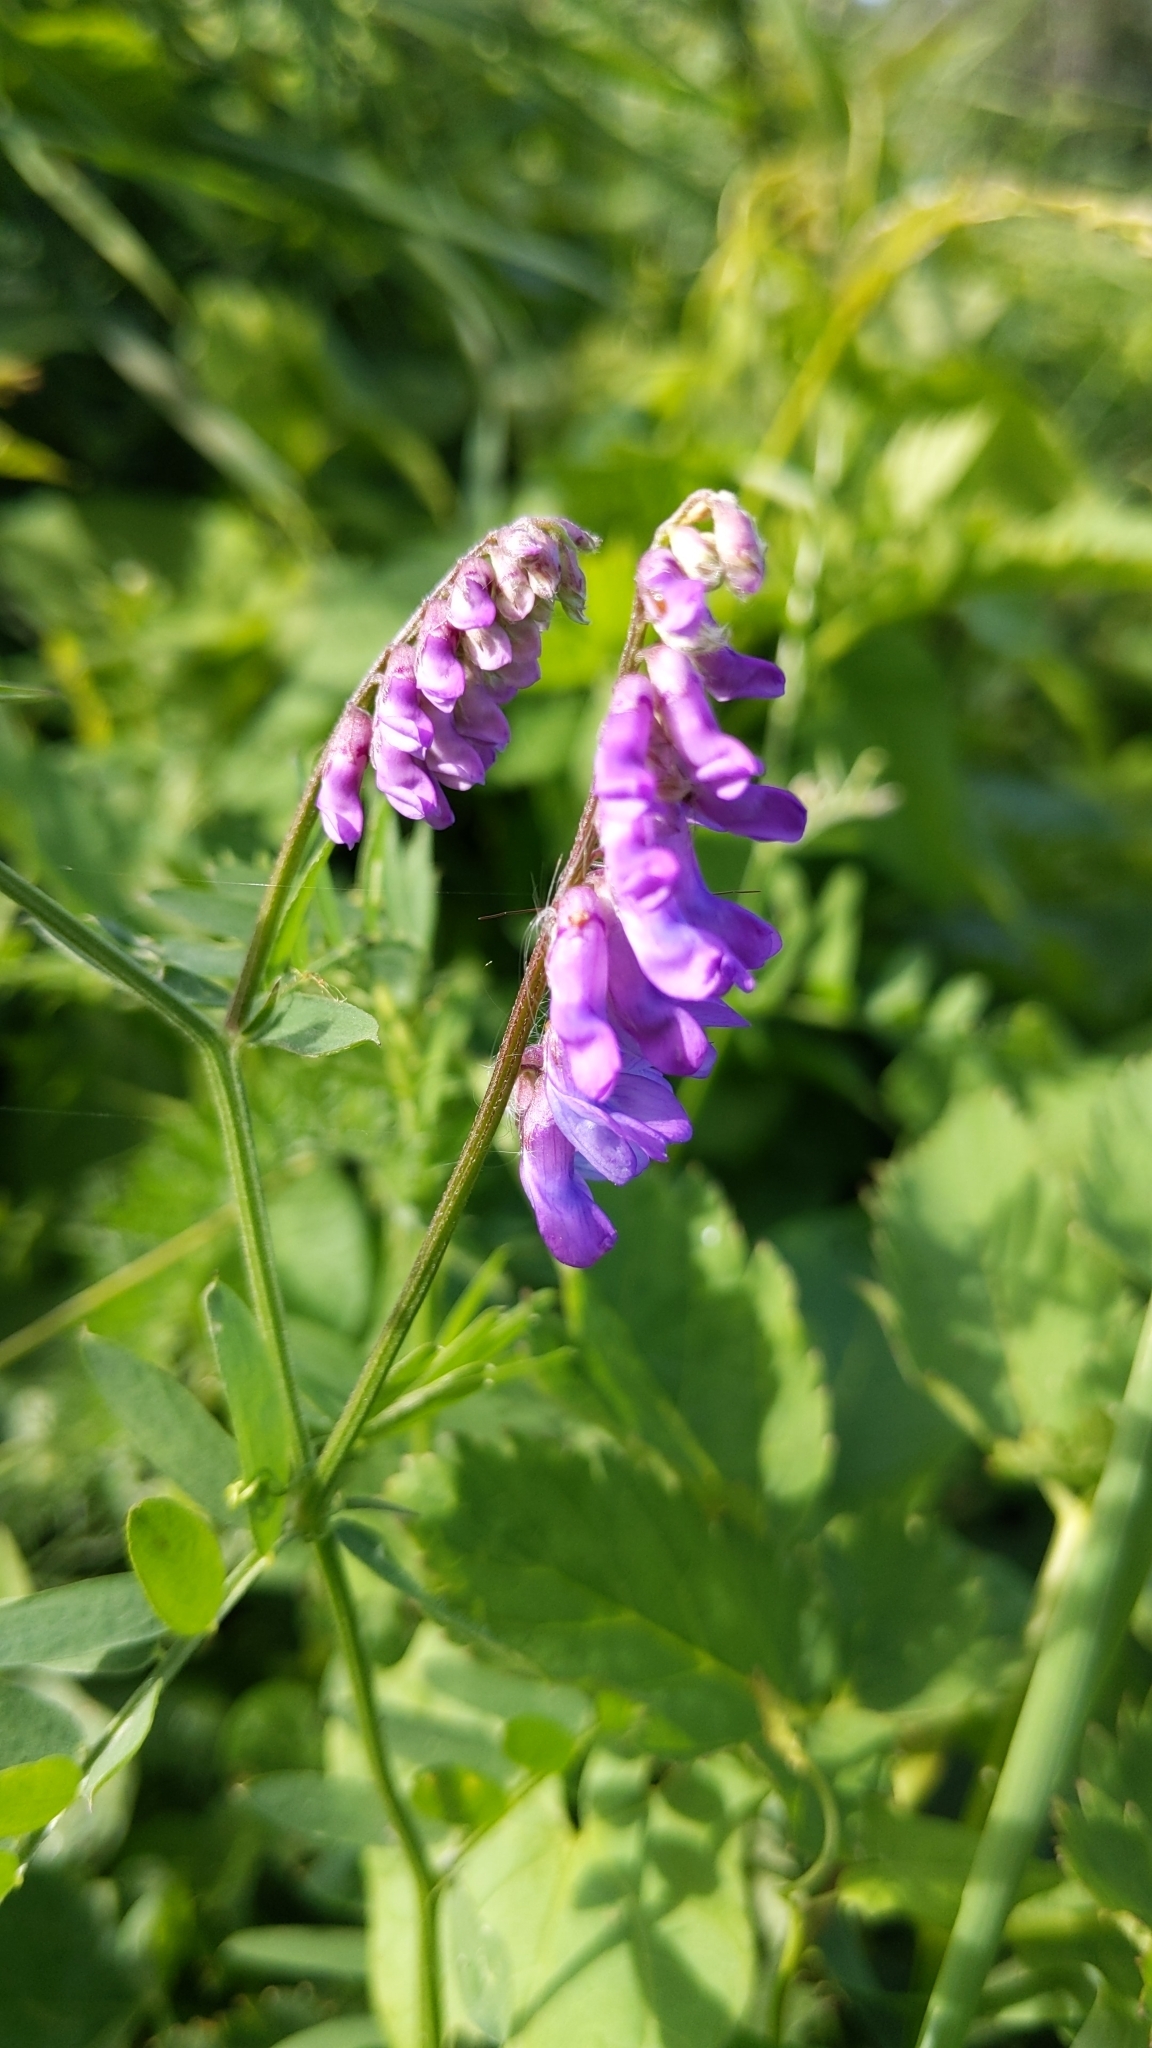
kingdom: Plantae
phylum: Tracheophyta
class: Magnoliopsida
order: Fabales
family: Fabaceae
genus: Vicia
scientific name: Vicia cracca
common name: Bird vetch
